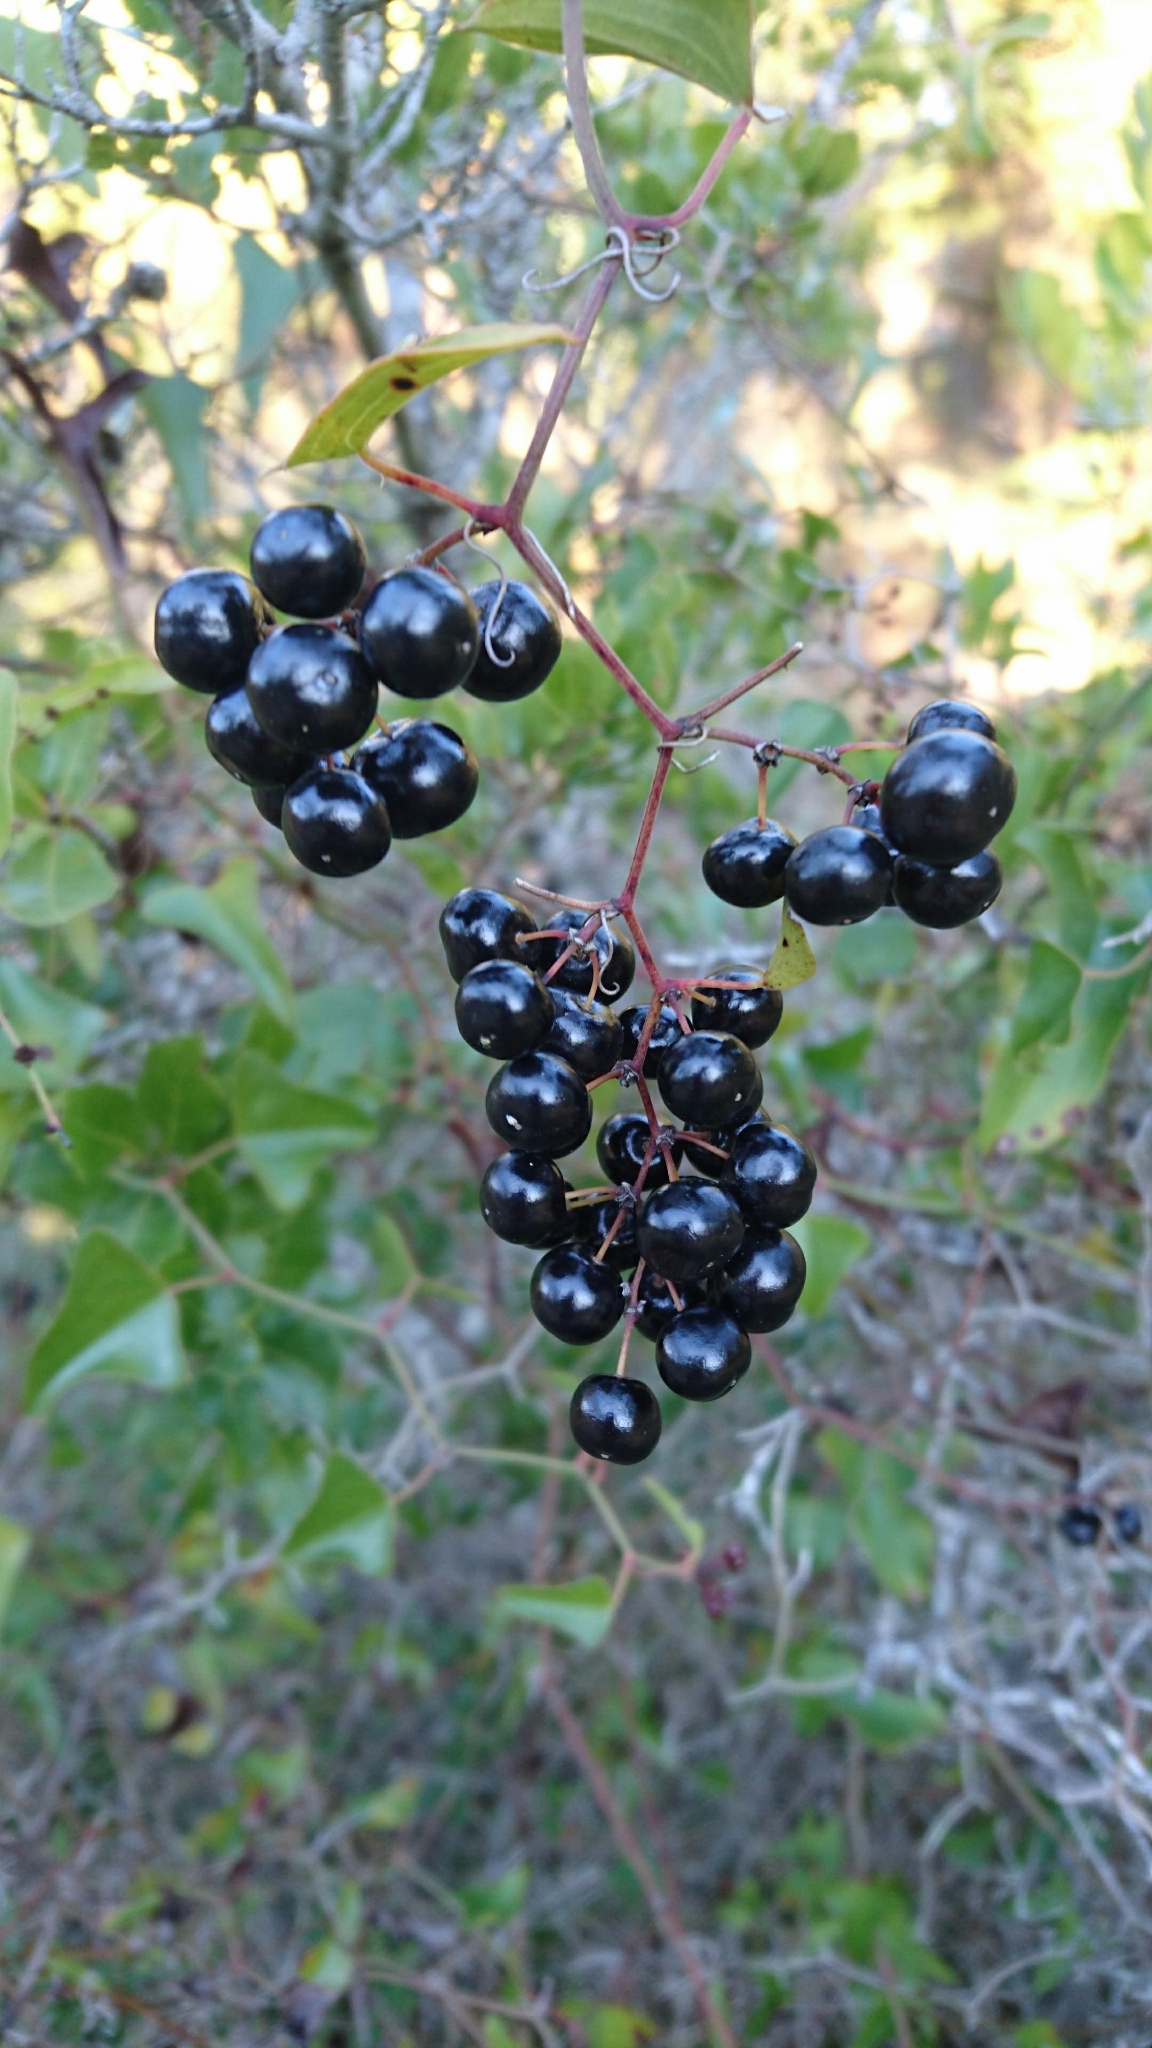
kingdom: Plantae
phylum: Tracheophyta
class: Liliopsida
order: Liliales
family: Smilacaceae
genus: Smilax
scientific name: Smilax aspera
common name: Common smilax
